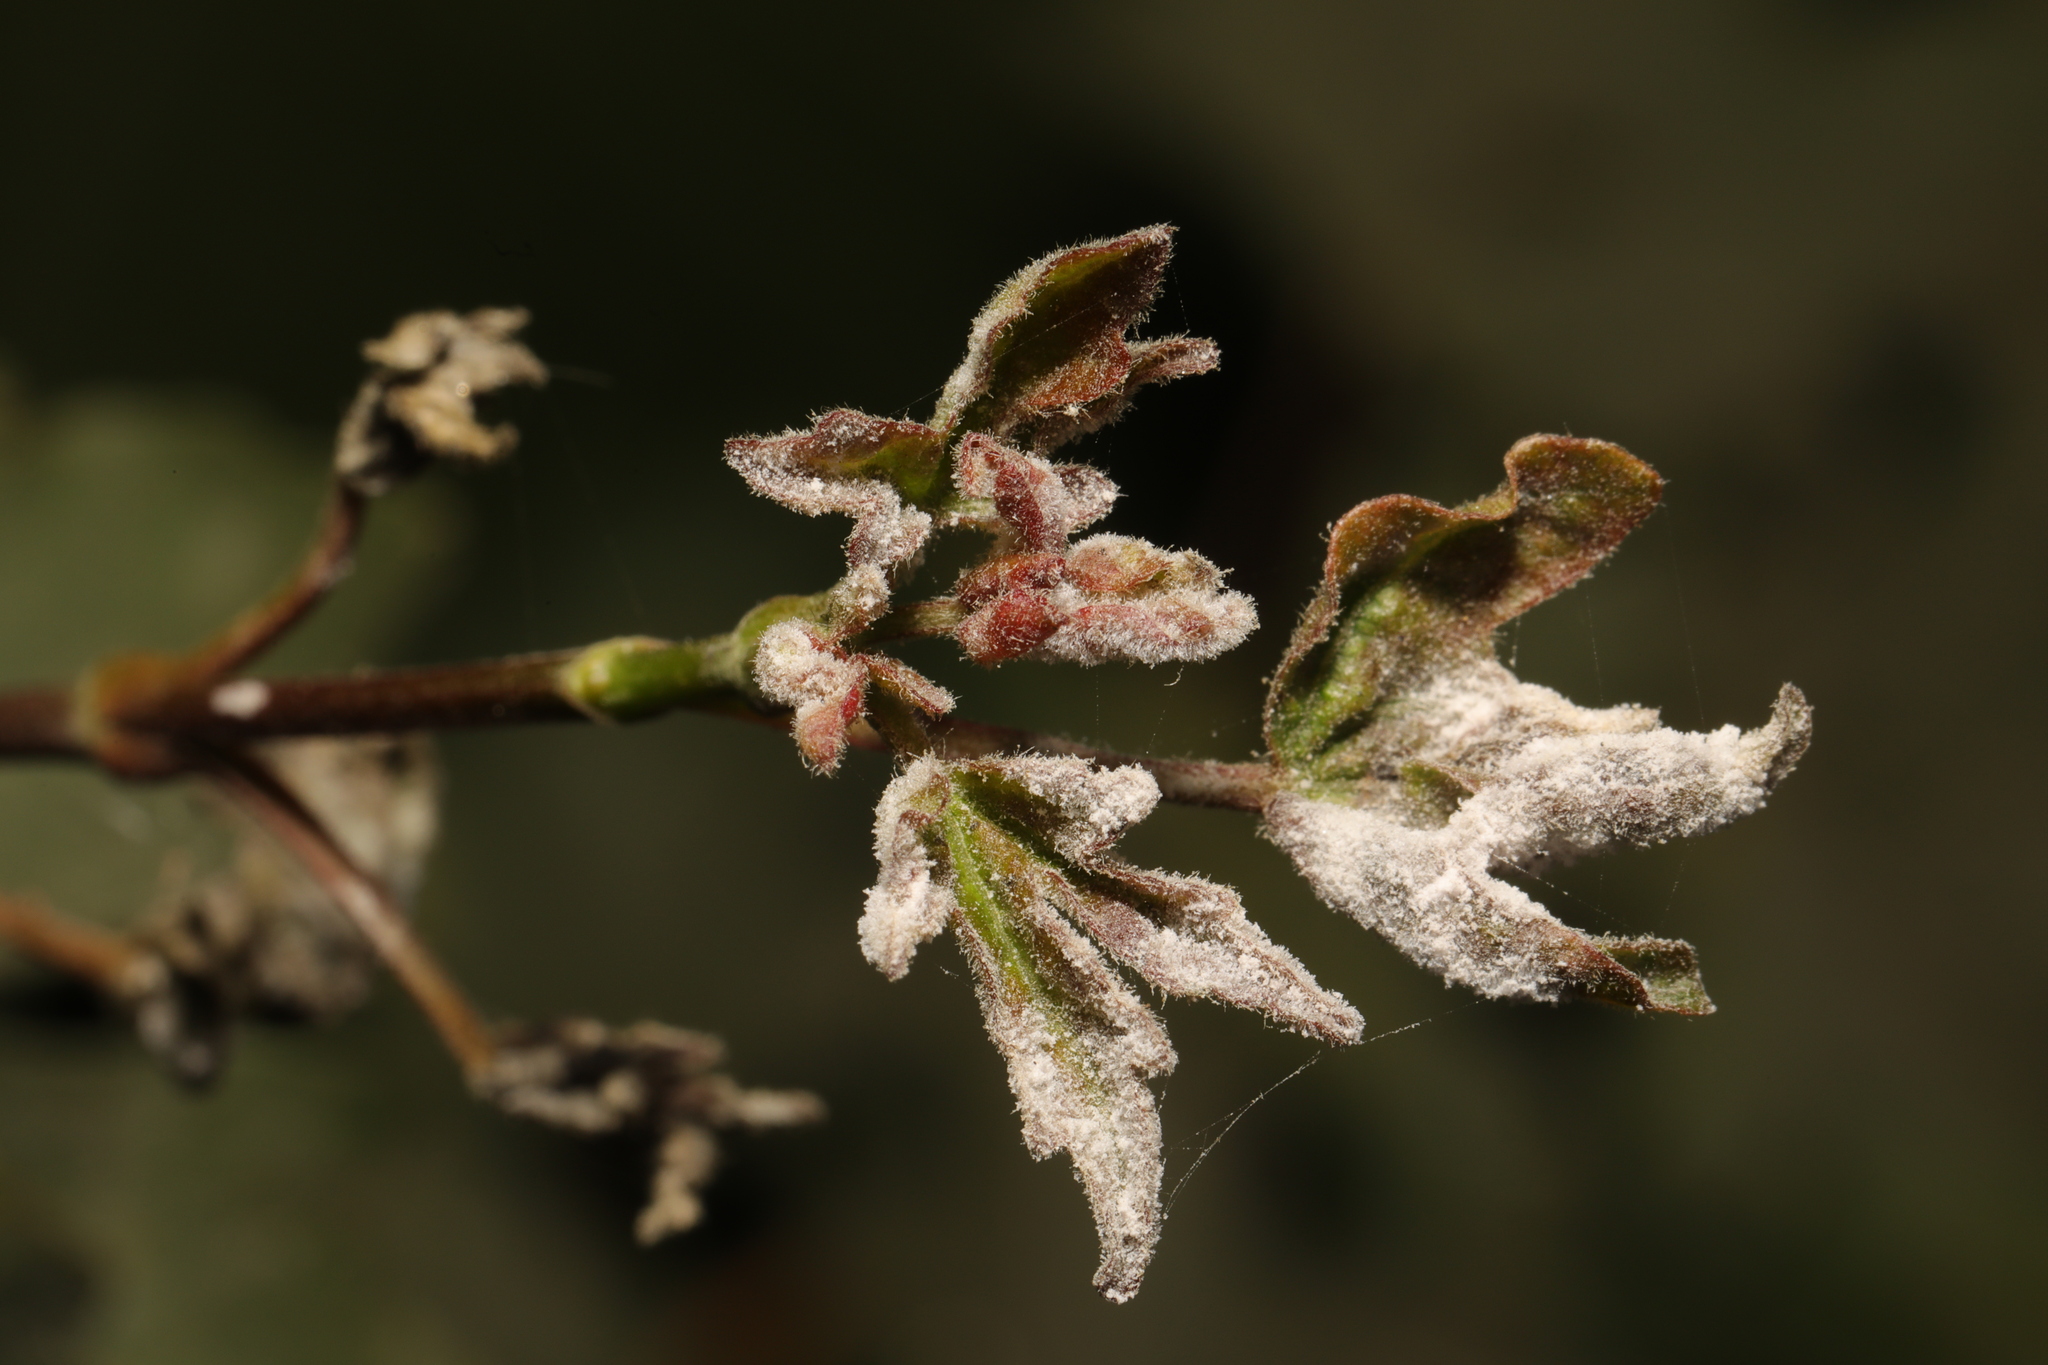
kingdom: Fungi
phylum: Ascomycota
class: Leotiomycetes
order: Helotiales
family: Erysiphaceae
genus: Sawadaea
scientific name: Sawadaea bicornis
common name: Maple mildew
